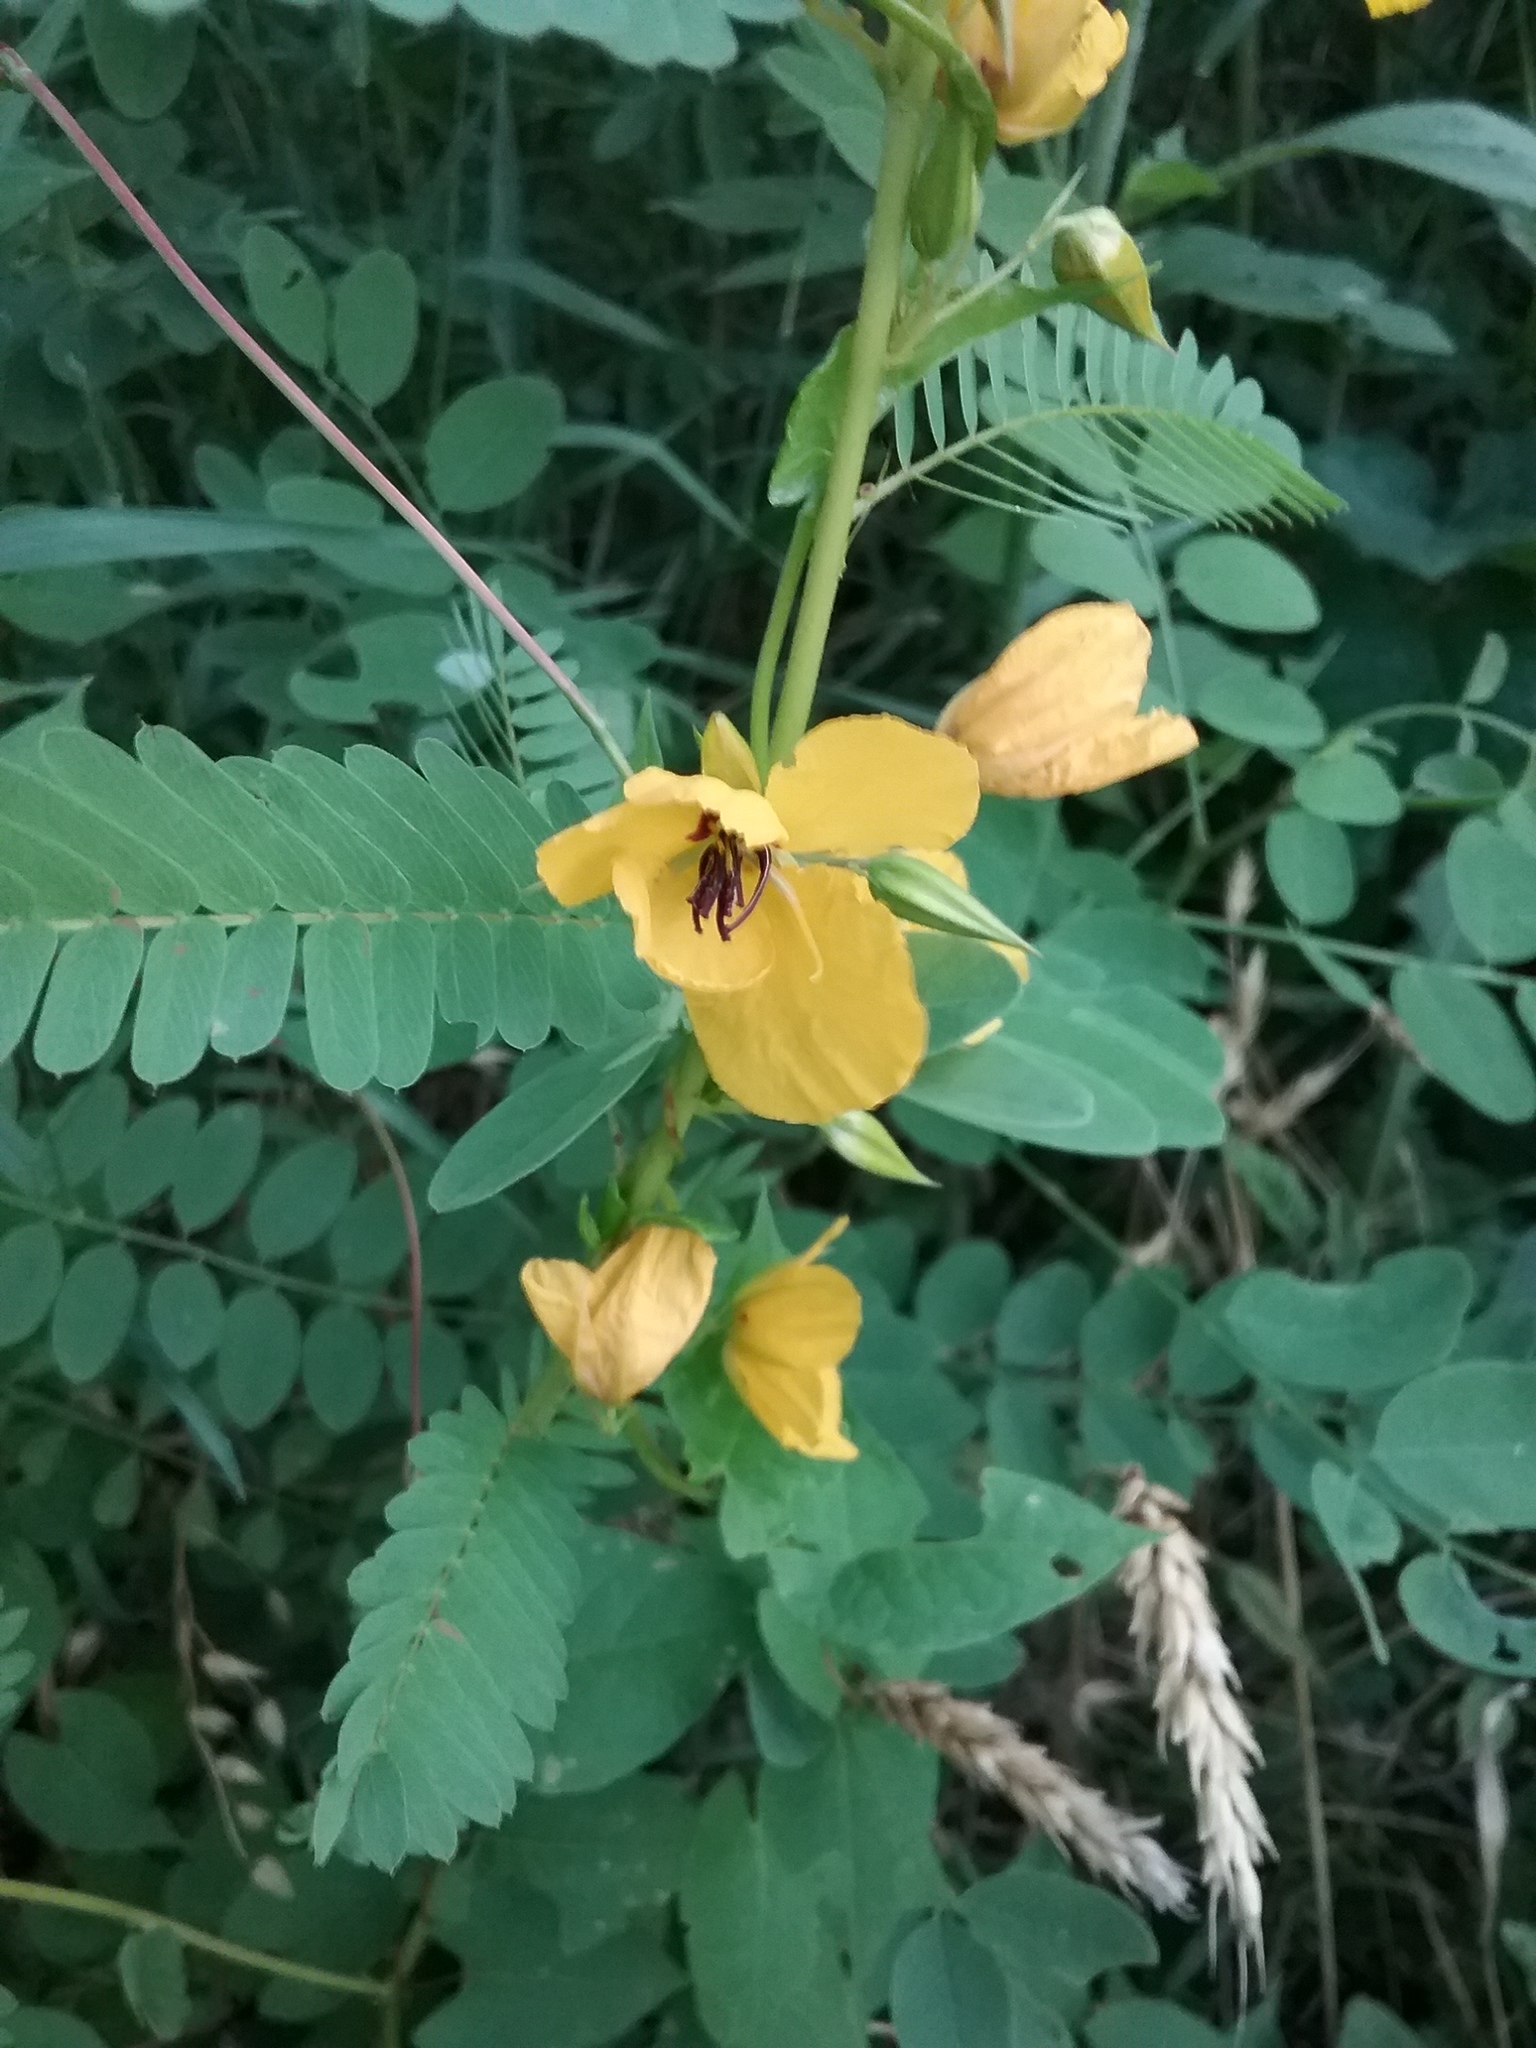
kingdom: Plantae
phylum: Tracheophyta
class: Magnoliopsida
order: Fabales
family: Fabaceae
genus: Chamaecrista
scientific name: Chamaecrista fasciculata
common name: Golden cassia
